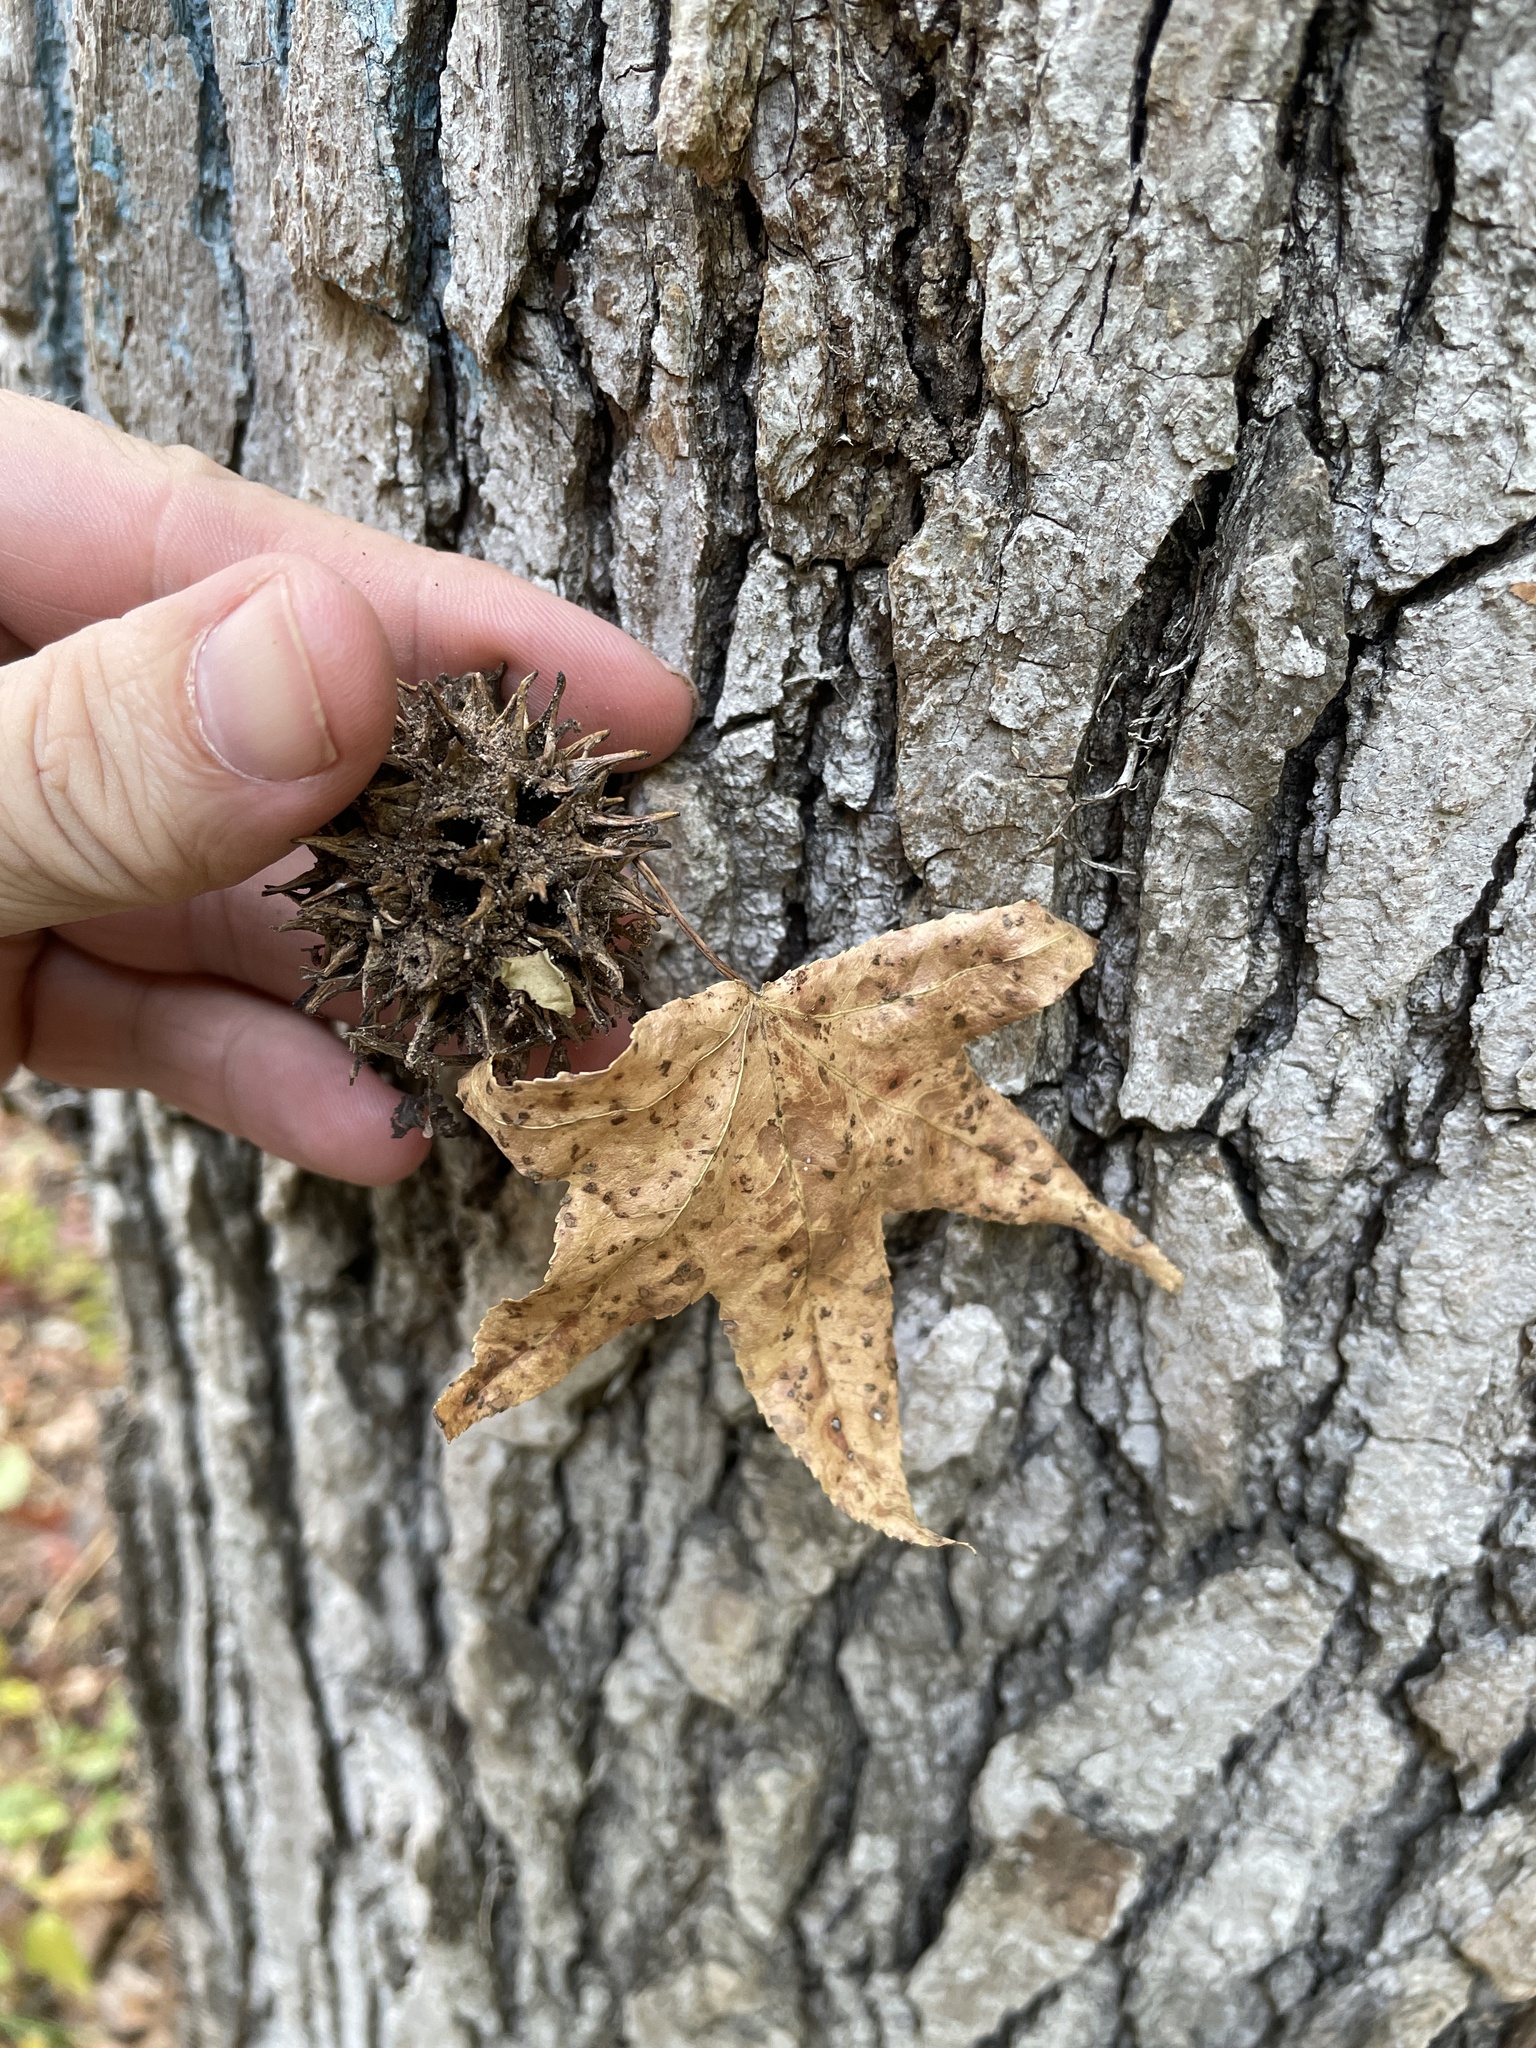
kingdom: Plantae
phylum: Tracheophyta
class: Magnoliopsida
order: Saxifragales
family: Altingiaceae
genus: Liquidambar
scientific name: Liquidambar styraciflua
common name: Sweet gum
